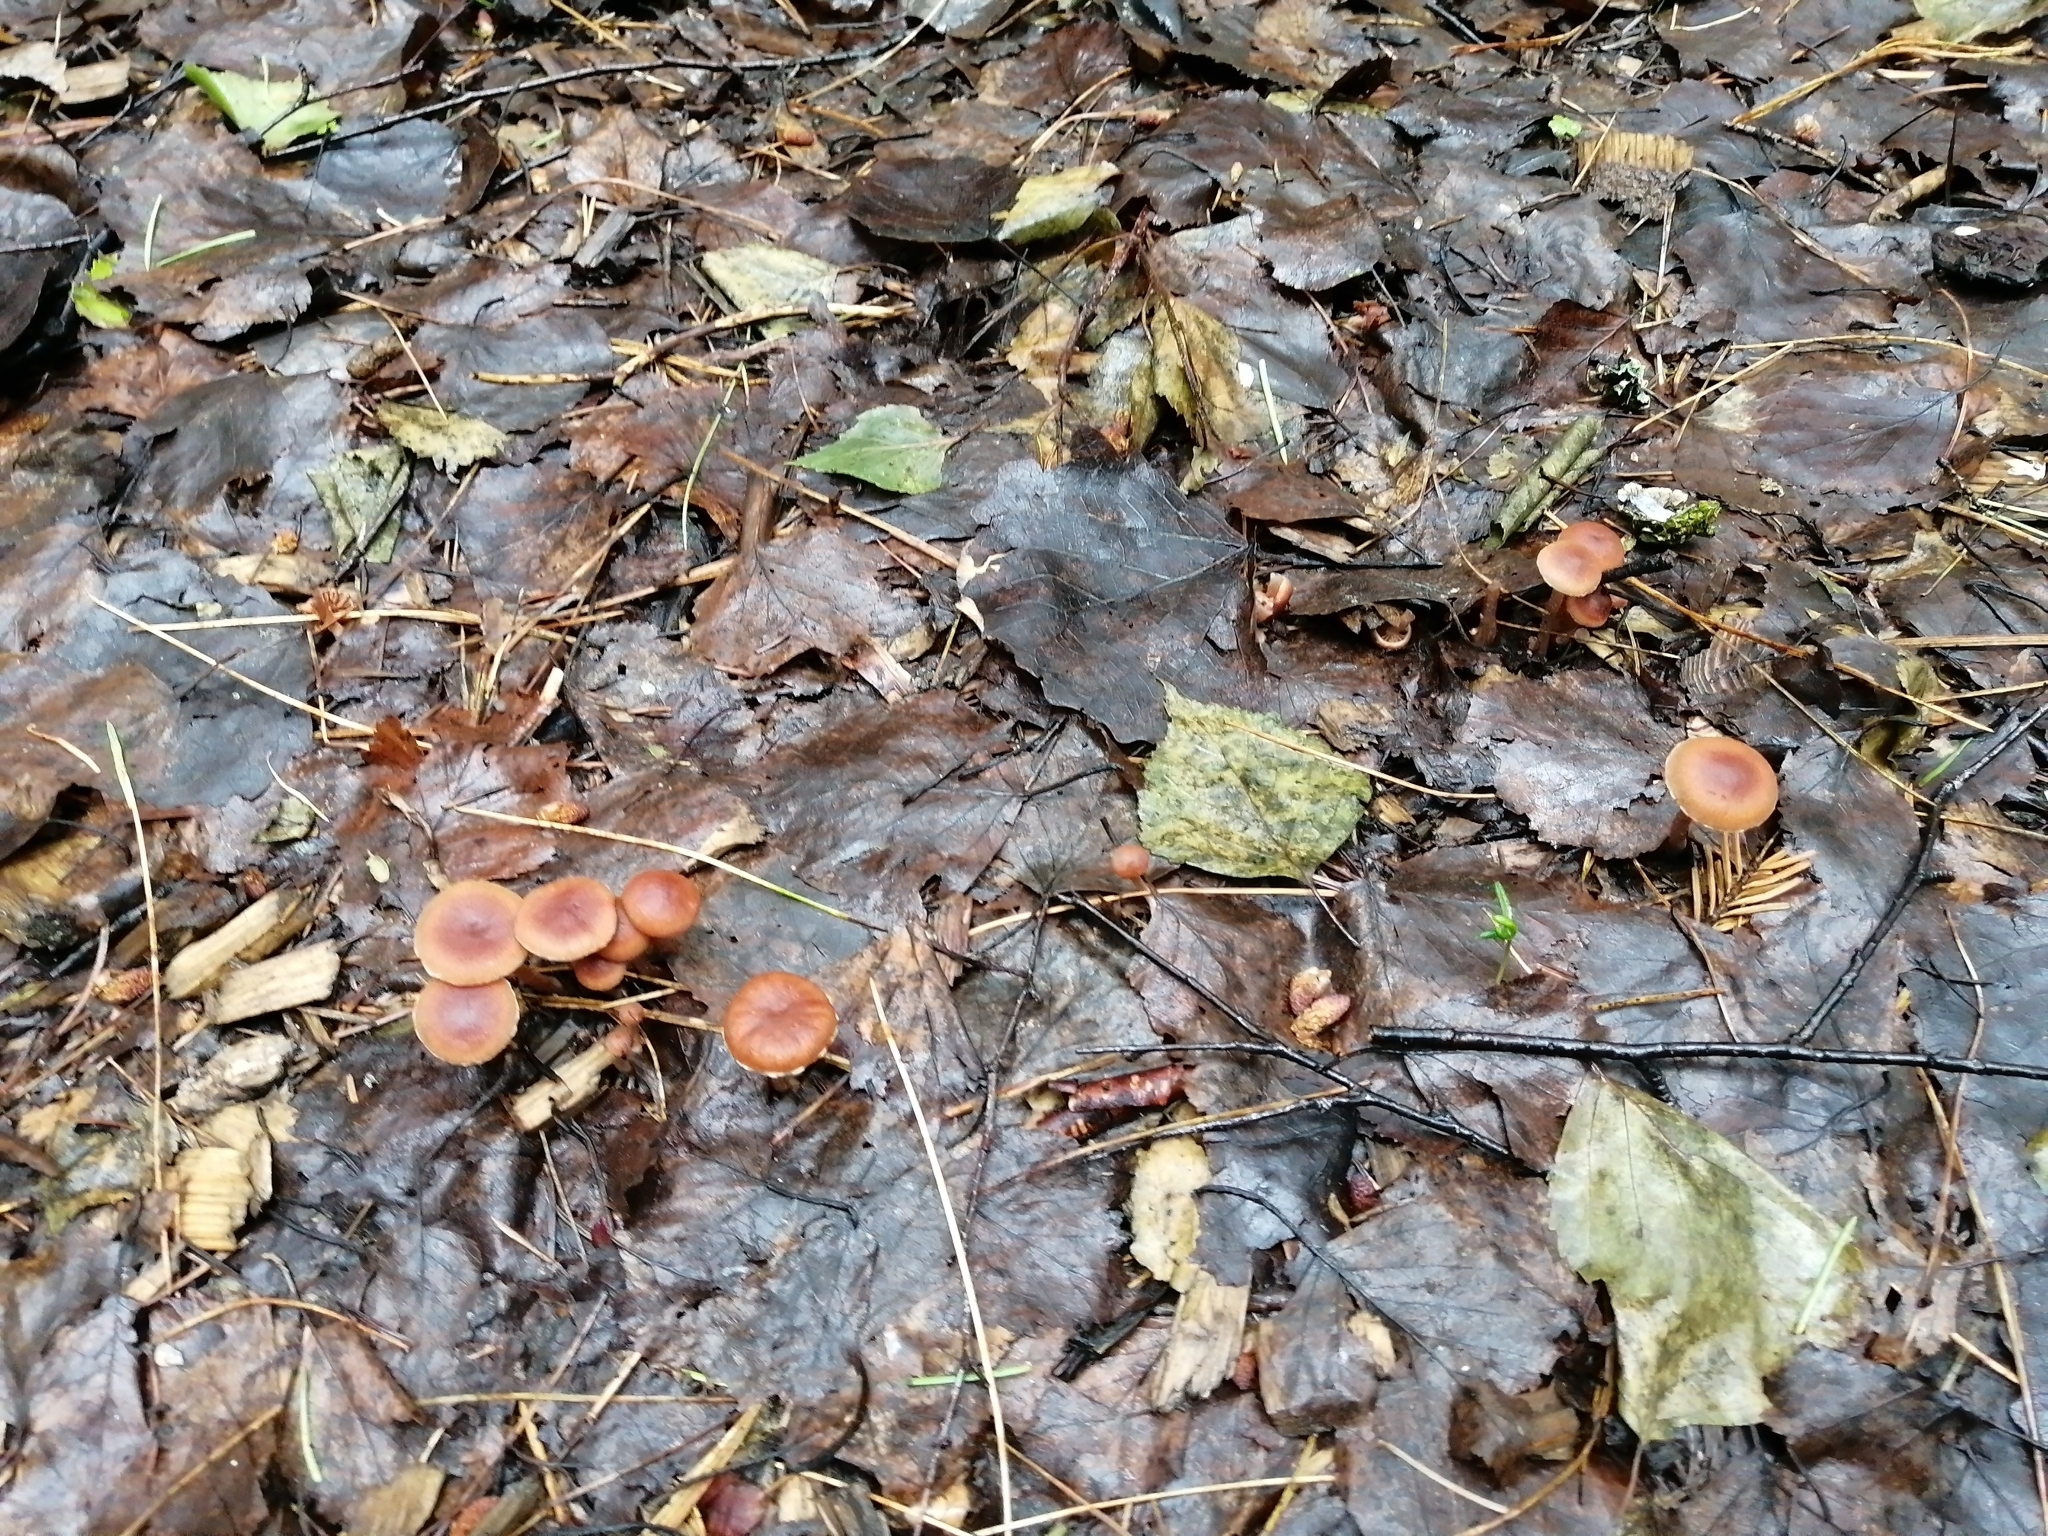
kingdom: Fungi
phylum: Basidiomycota
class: Agaricomycetes
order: Agaricales
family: Tubariaceae
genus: Tubaria
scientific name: Tubaria furfuracea
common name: Scurfy twiglet
